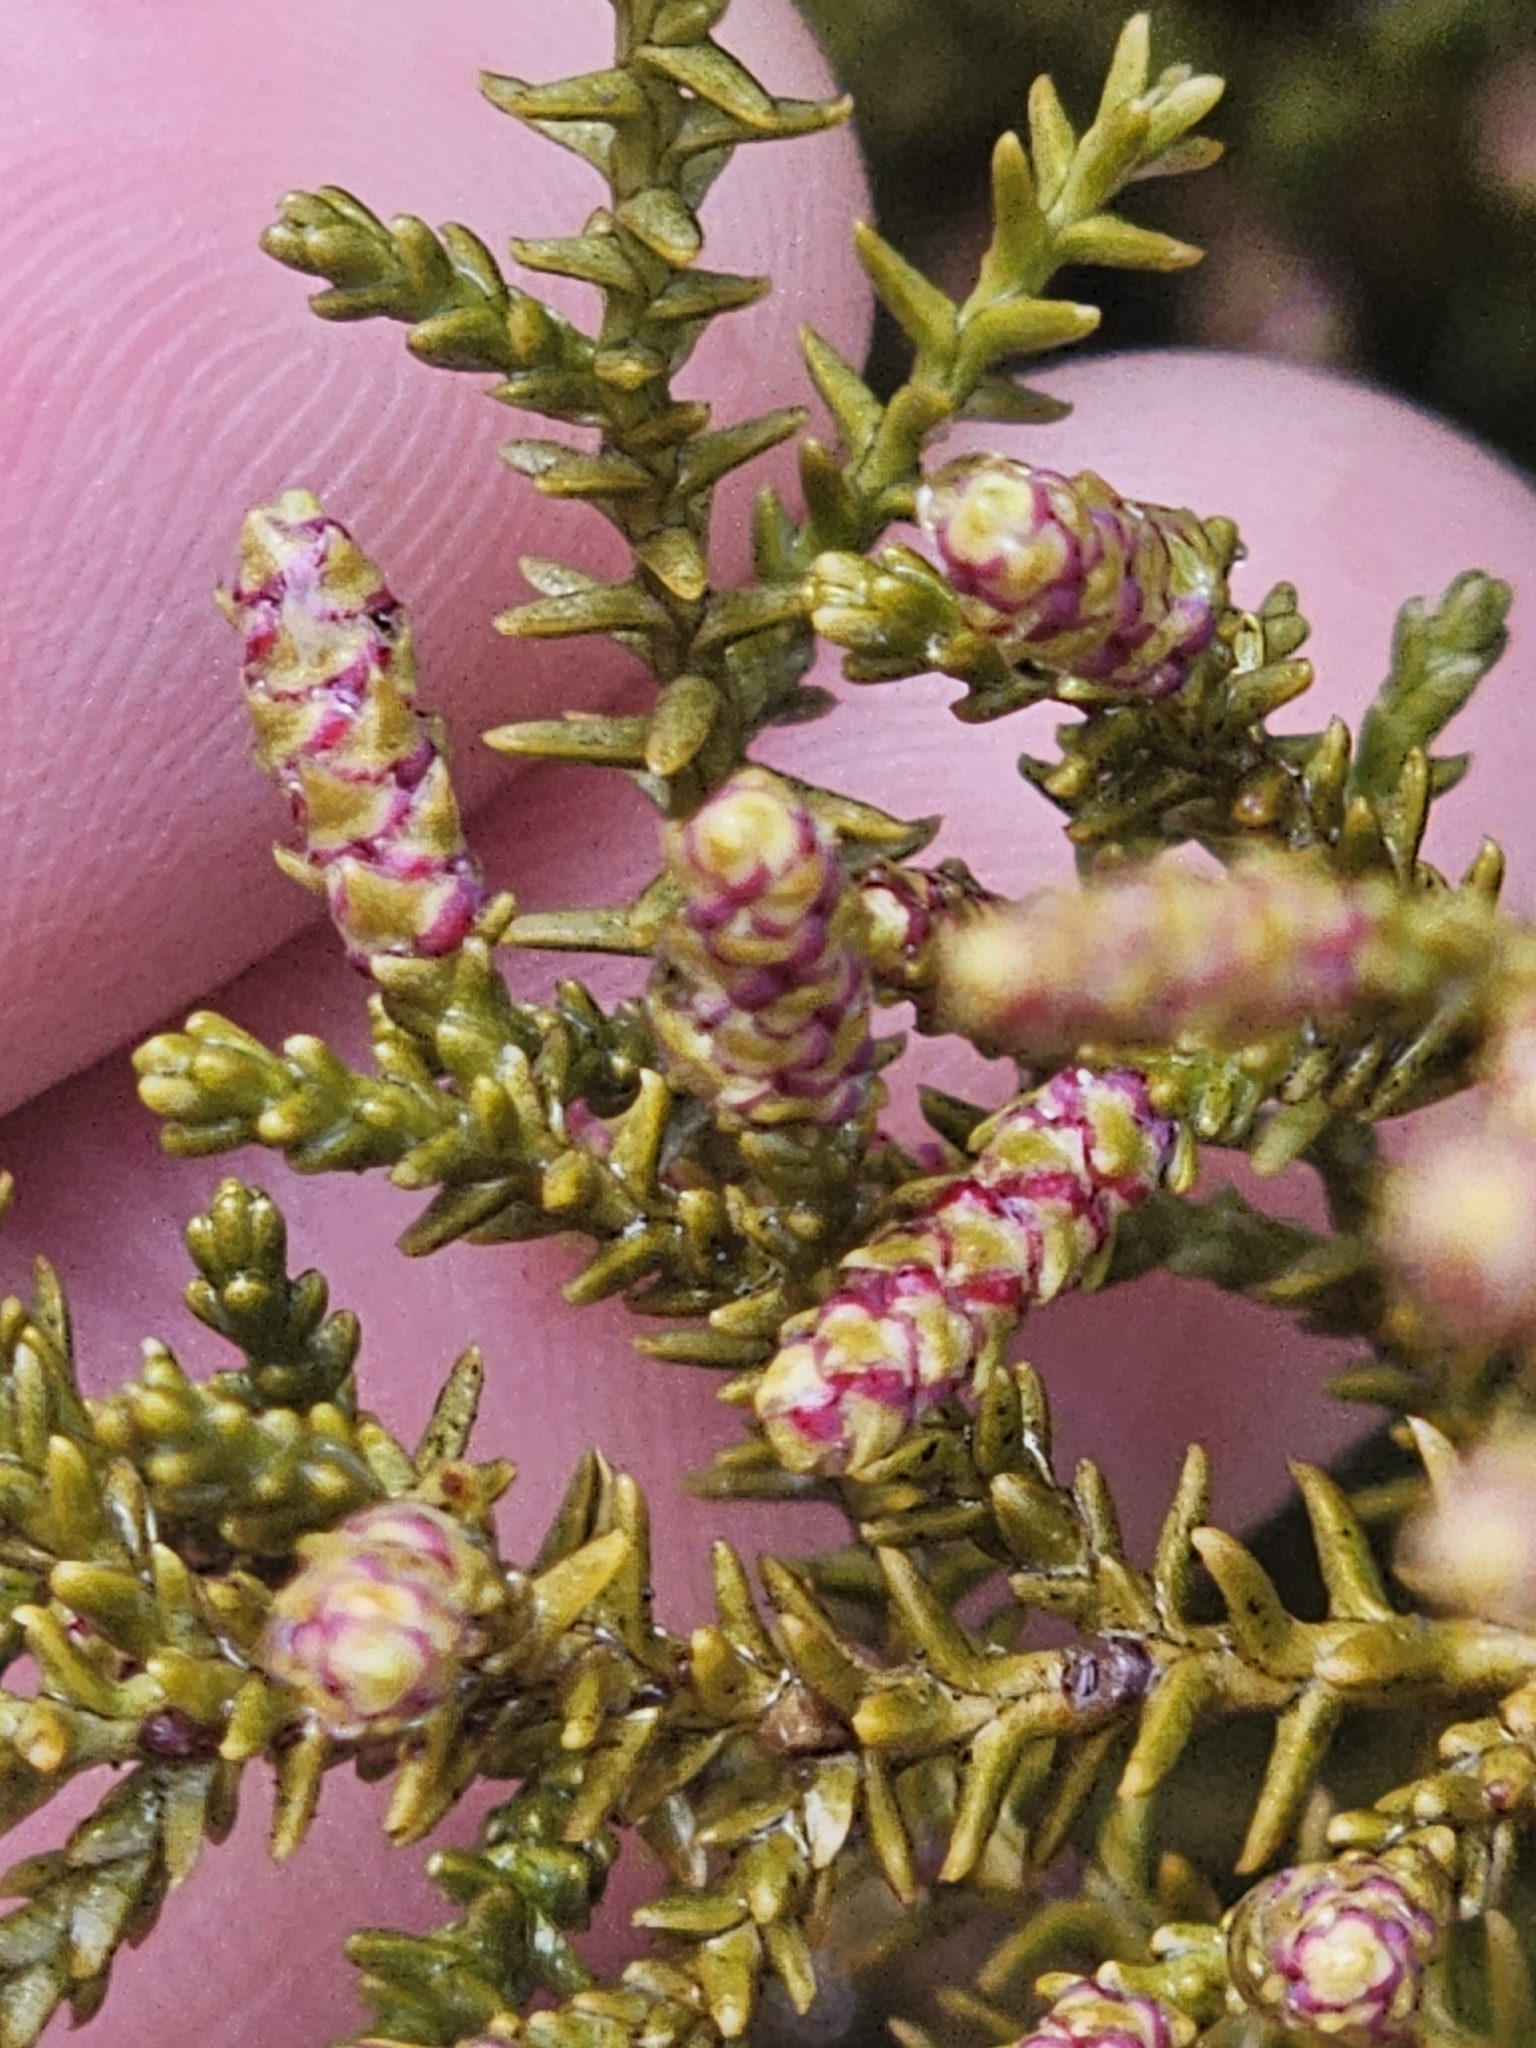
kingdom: Plantae
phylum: Tracheophyta
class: Pinopsida
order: Pinales
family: Podocarpaceae
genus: Lepidothamnus
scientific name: Lepidothamnus laxifolius
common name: Pygmy pine
